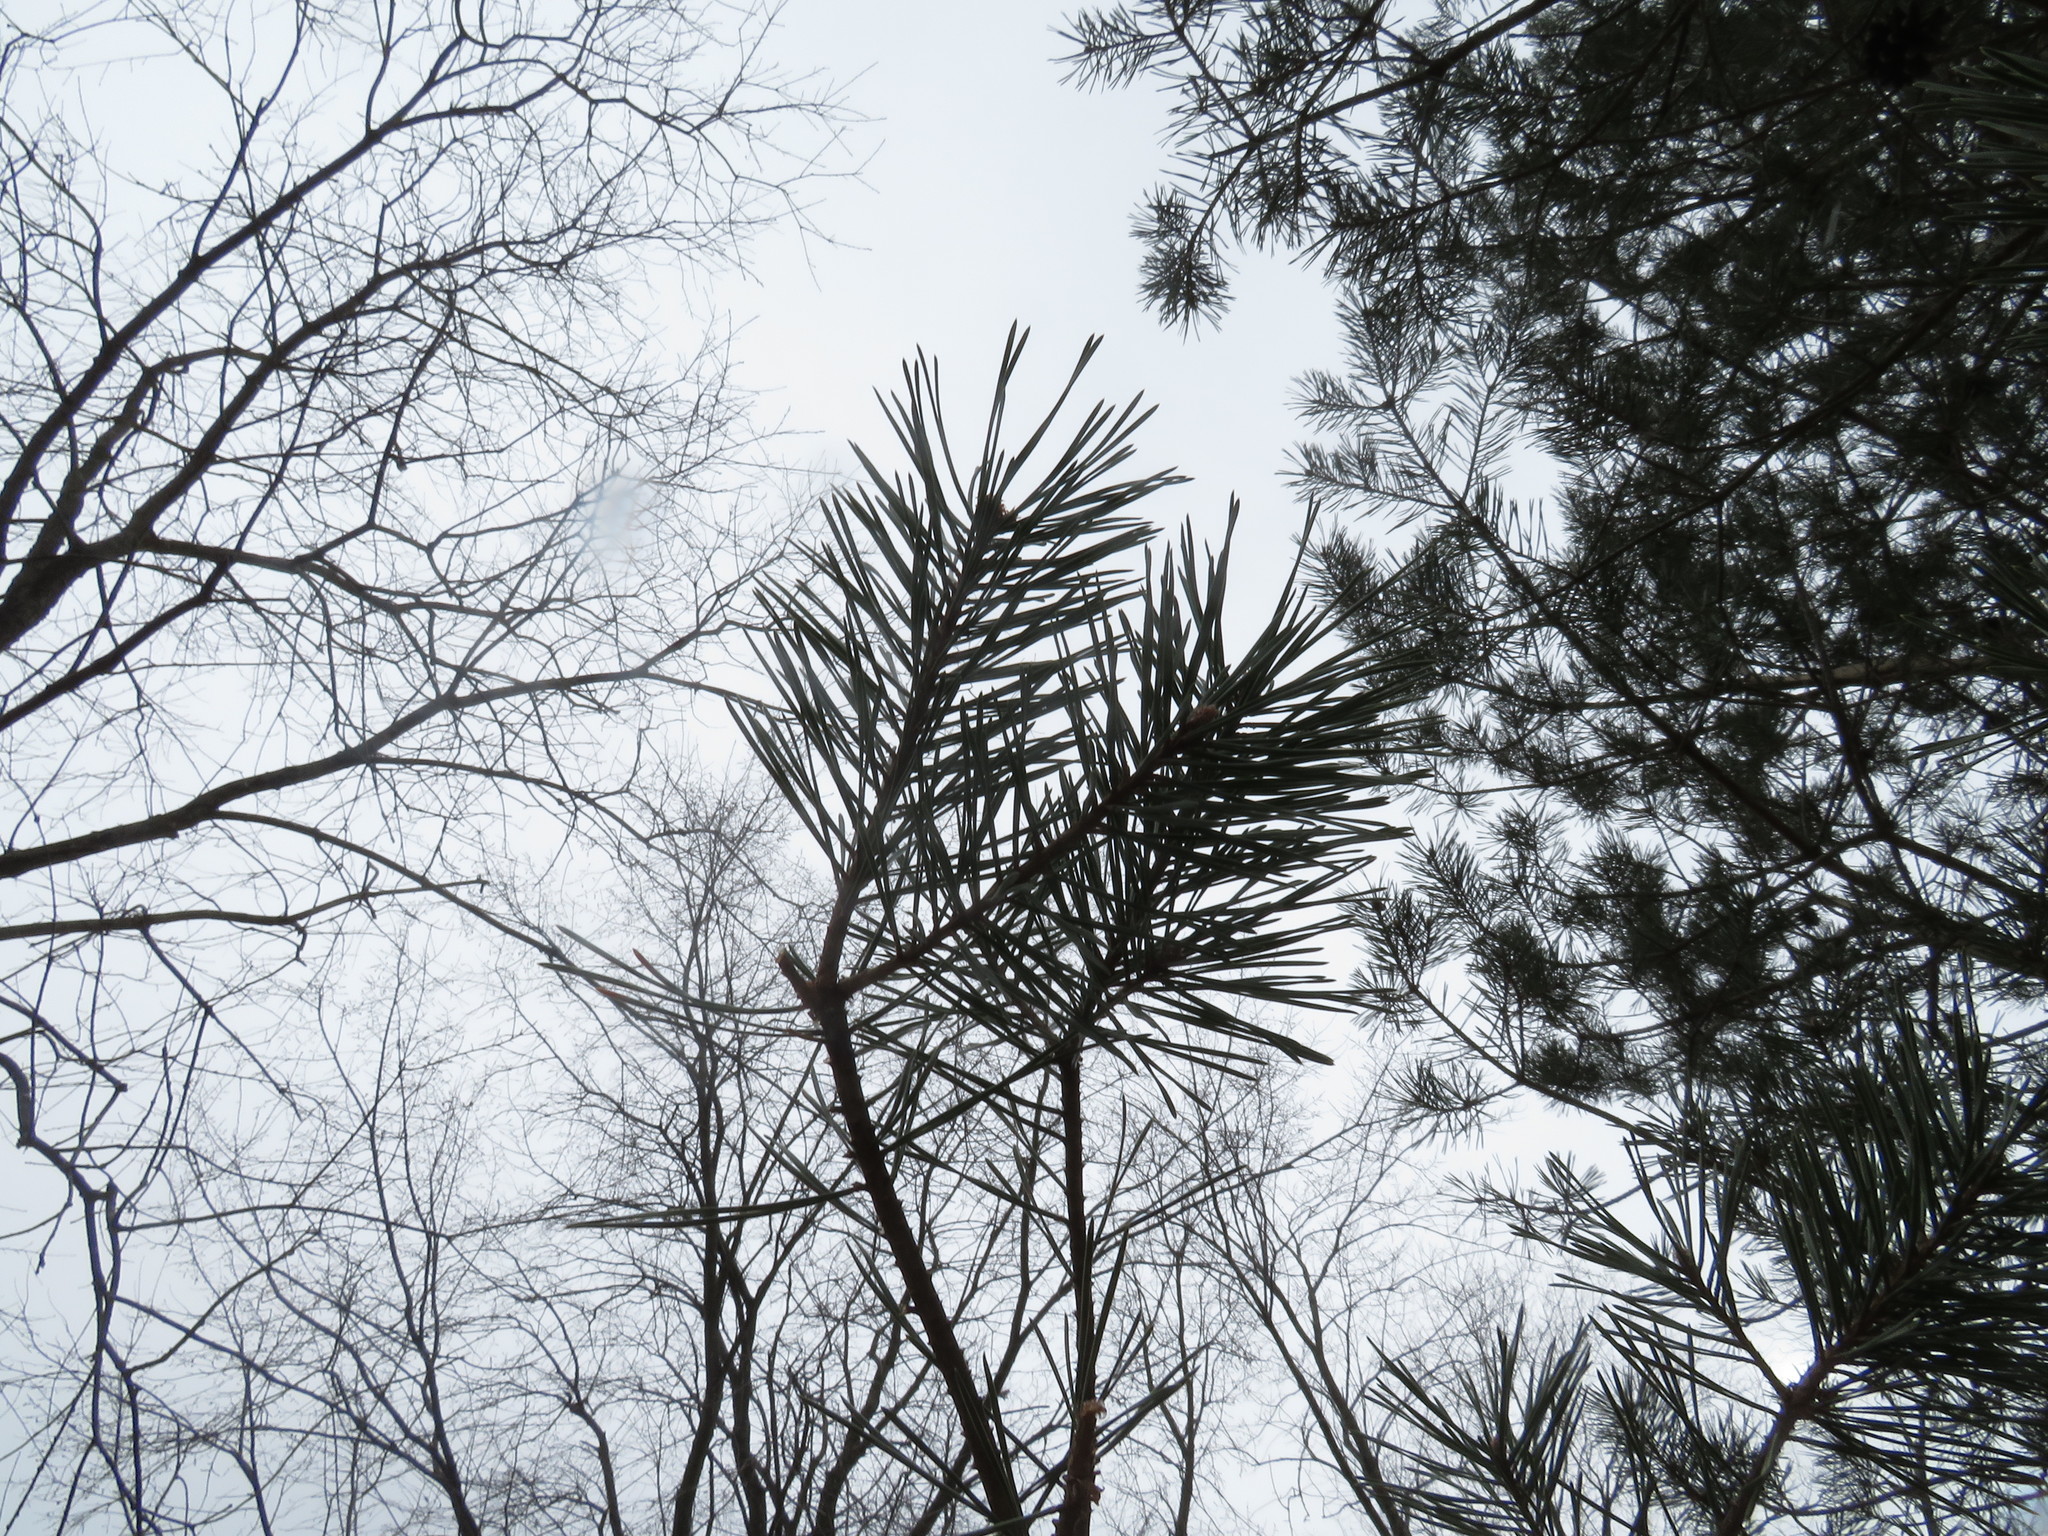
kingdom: Plantae
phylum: Tracheophyta
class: Pinopsida
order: Pinales
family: Pinaceae
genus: Pinus
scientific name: Pinus sylvestris
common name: Scots pine
